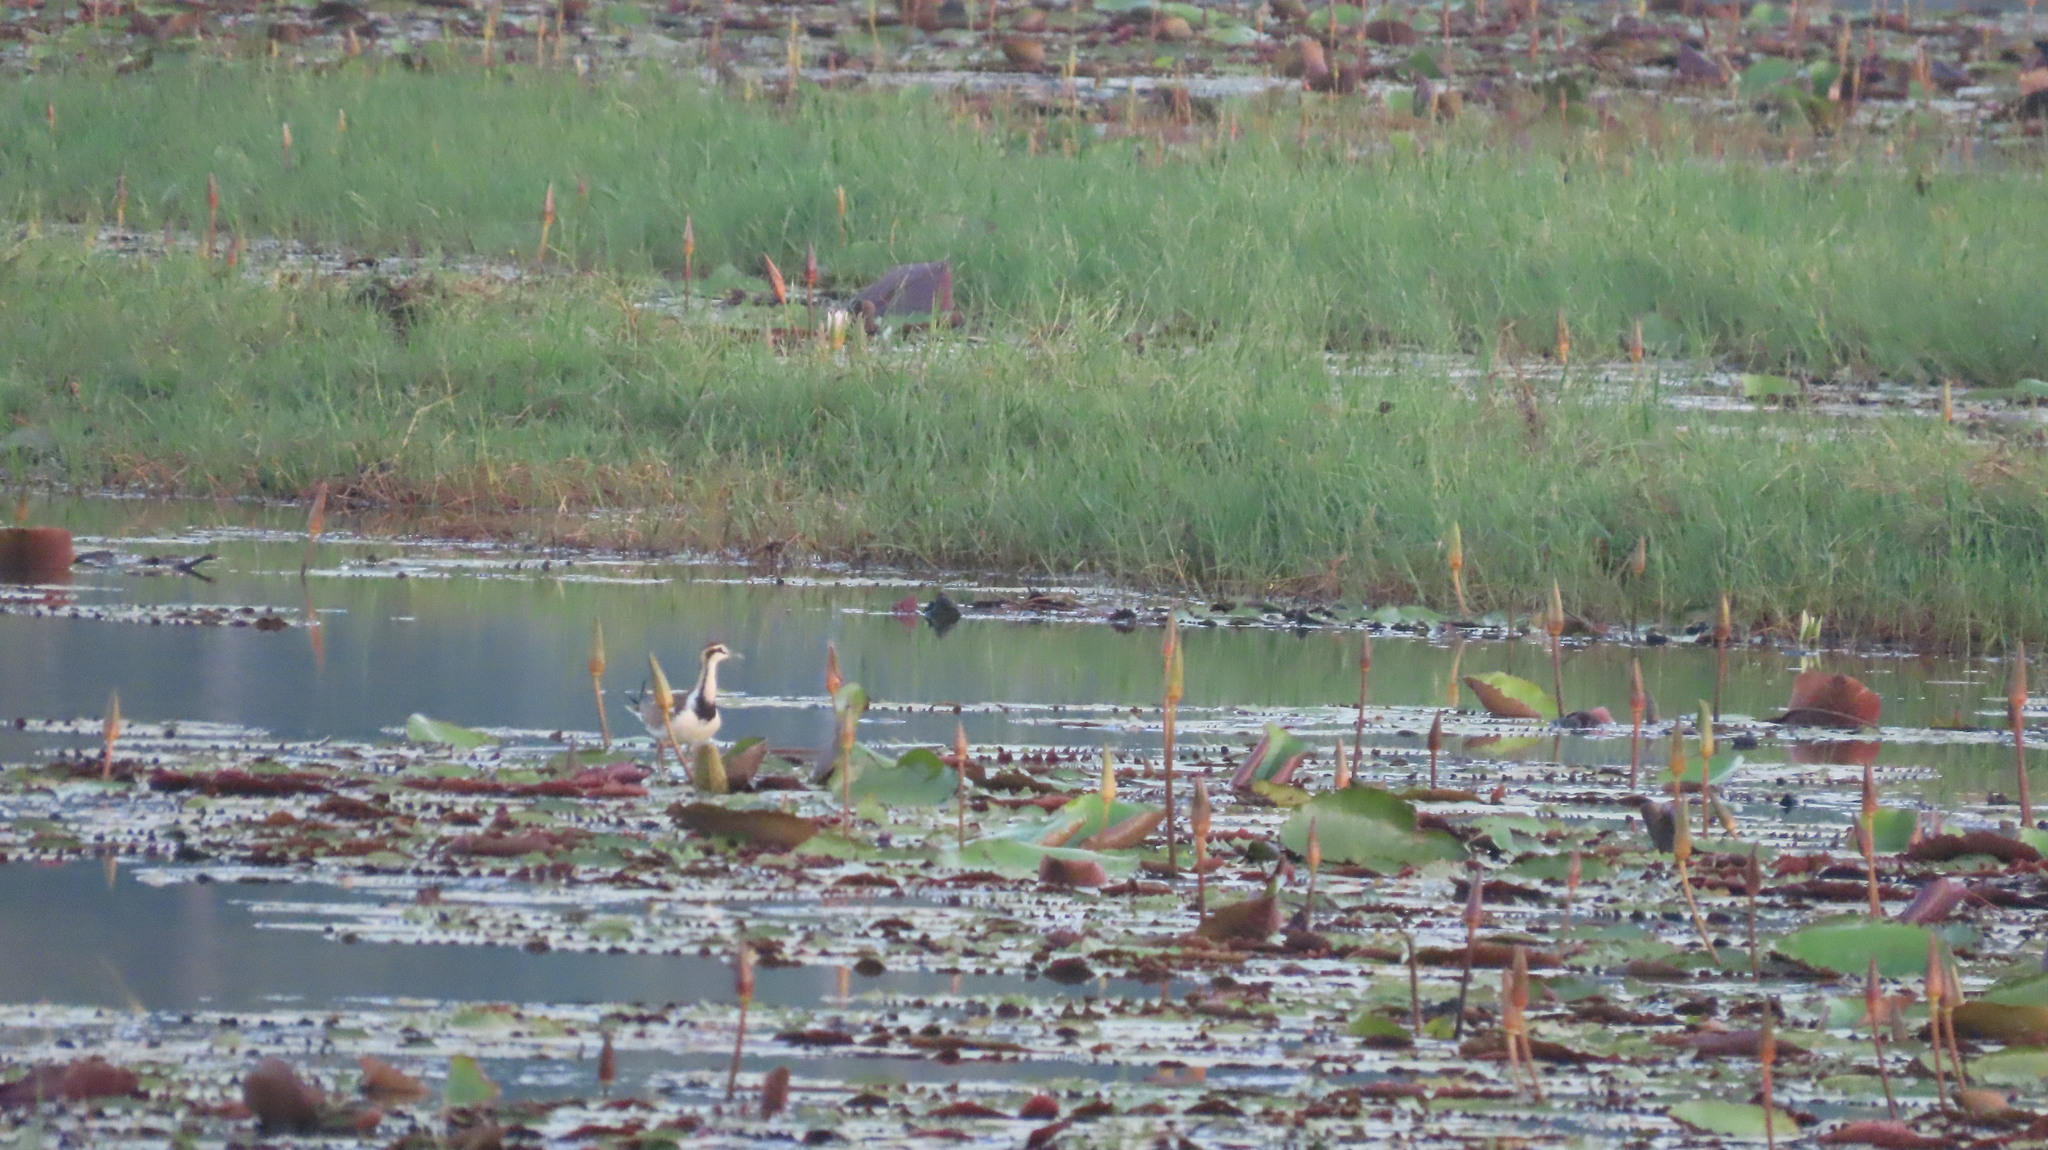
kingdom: Animalia
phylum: Chordata
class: Aves
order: Charadriiformes
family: Jacanidae
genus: Hydrophasianus
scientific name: Hydrophasianus chirurgus
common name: Pheasant-tailed jacana
